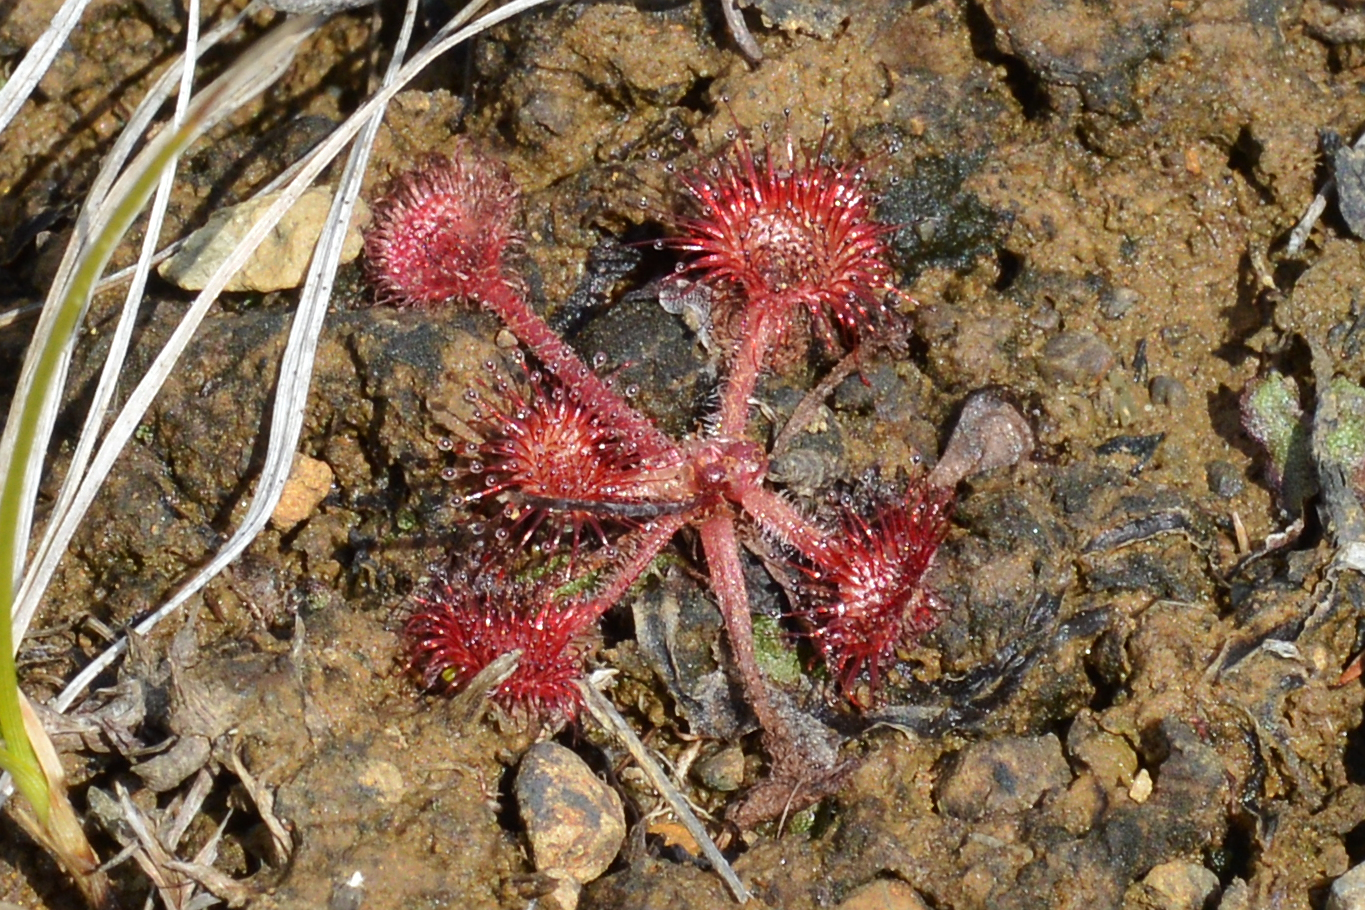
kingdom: Plantae
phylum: Tracheophyta
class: Magnoliopsida
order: Caryophyllales
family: Droseraceae
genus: Drosera
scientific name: Drosera rotundifolia
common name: Round-leaved sundew
